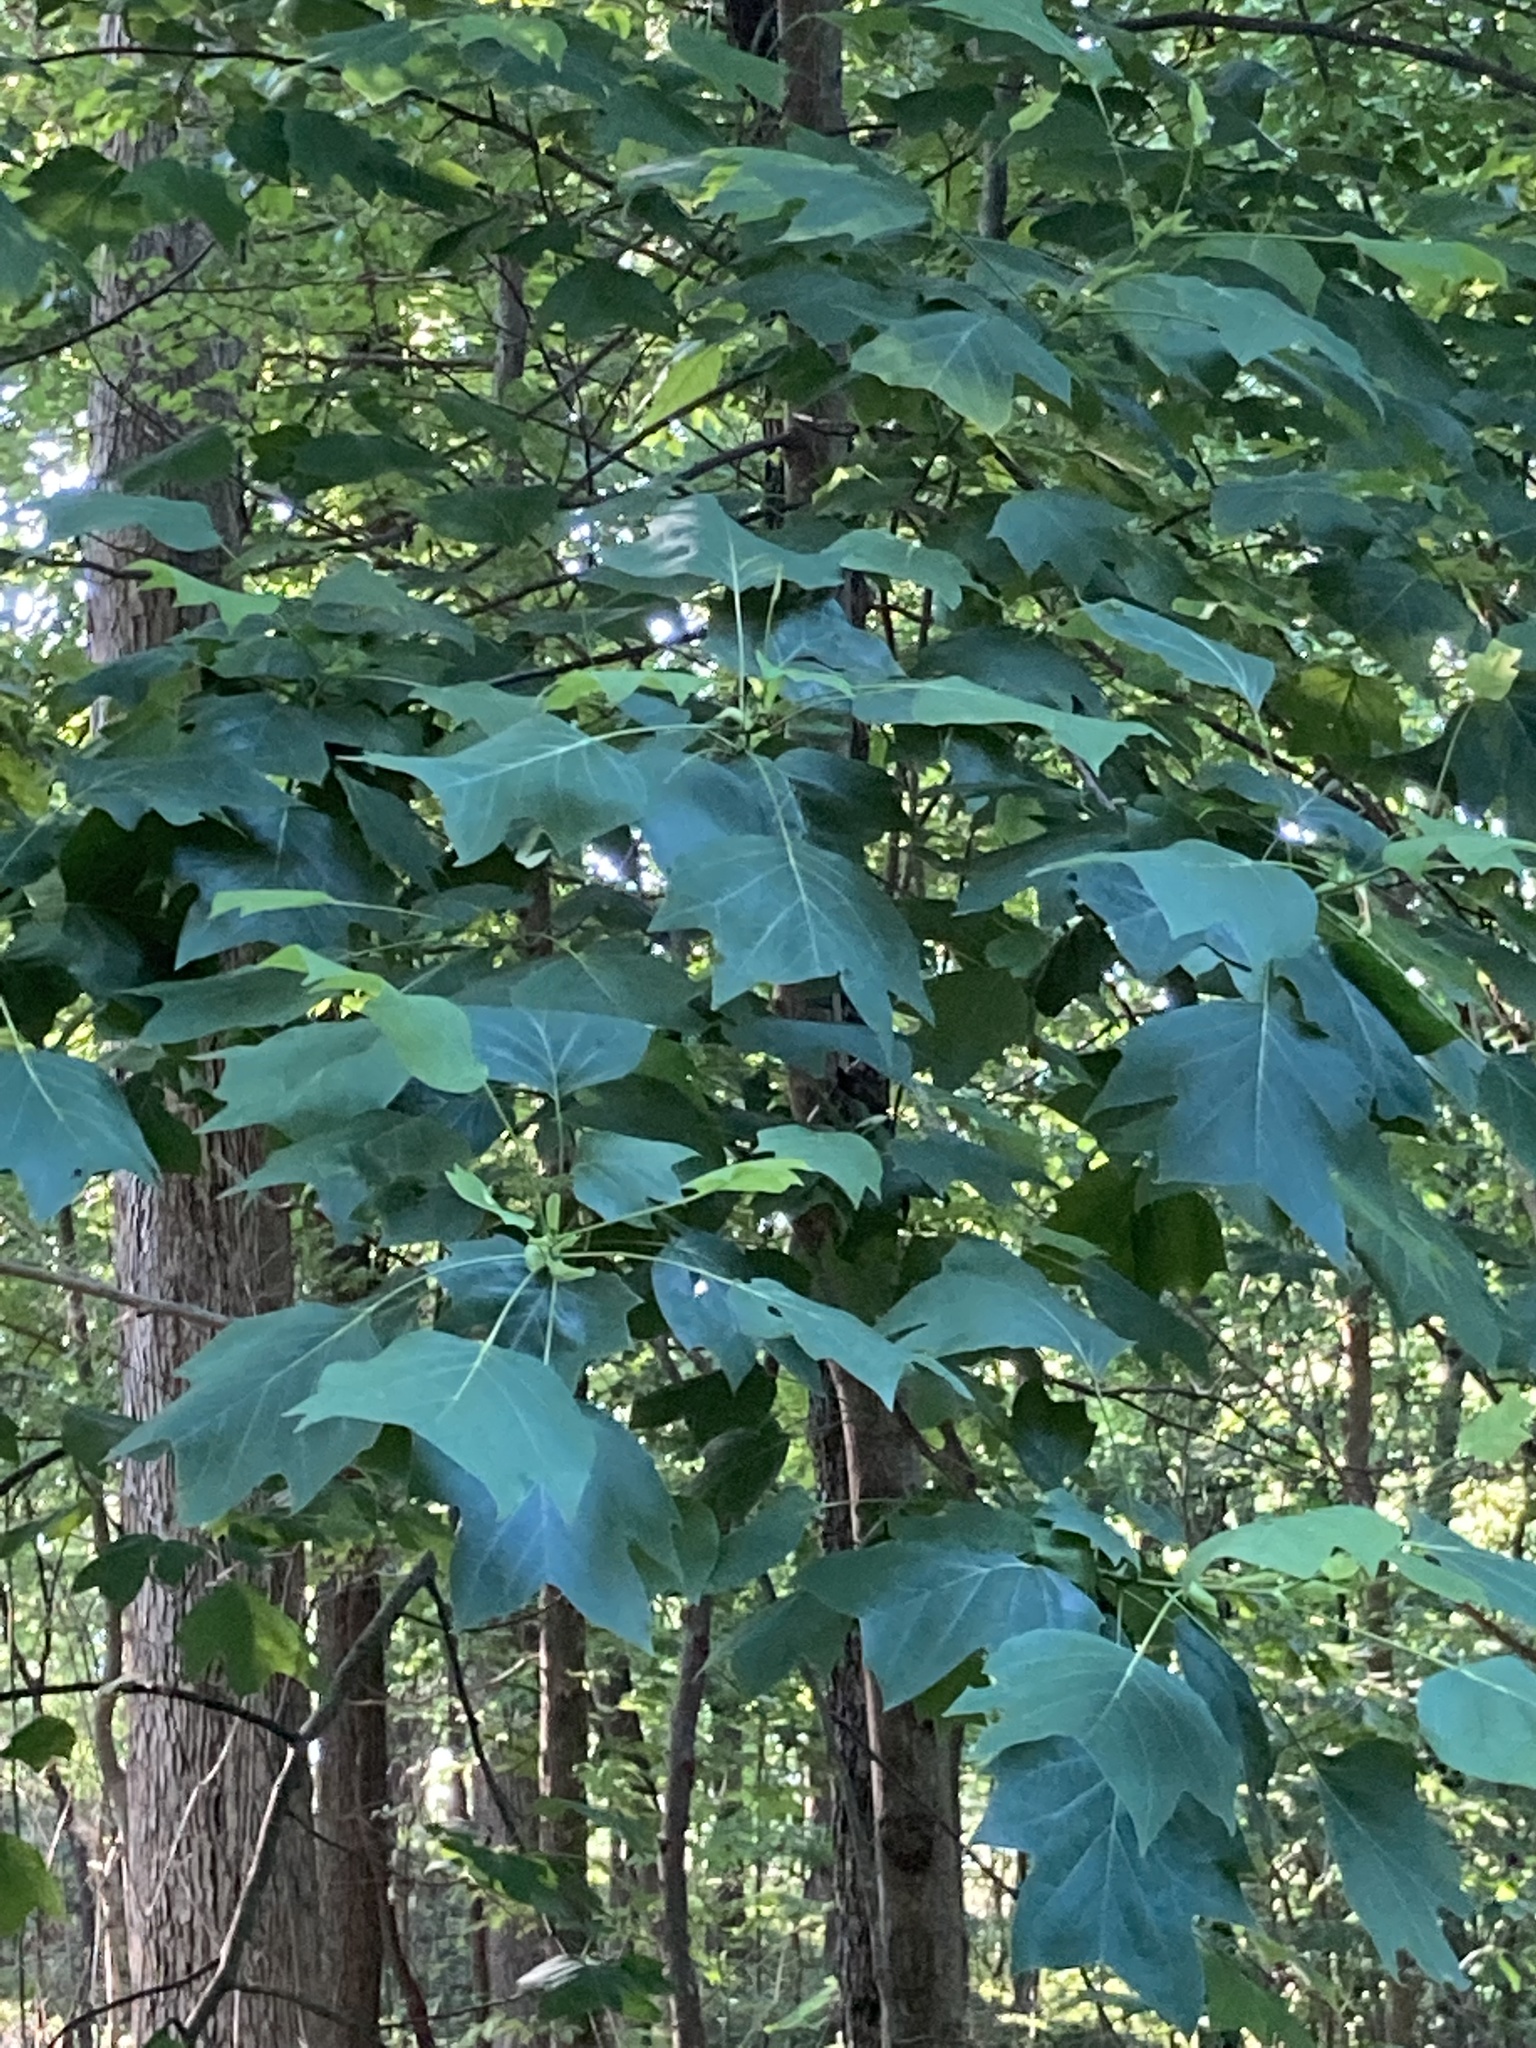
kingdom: Plantae
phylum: Tracheophyta
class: Magnoliopsida
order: Magnoliales
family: Magnoliaceae
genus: Liriodendron
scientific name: Liriodendron tulipifera
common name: Tulip tree
